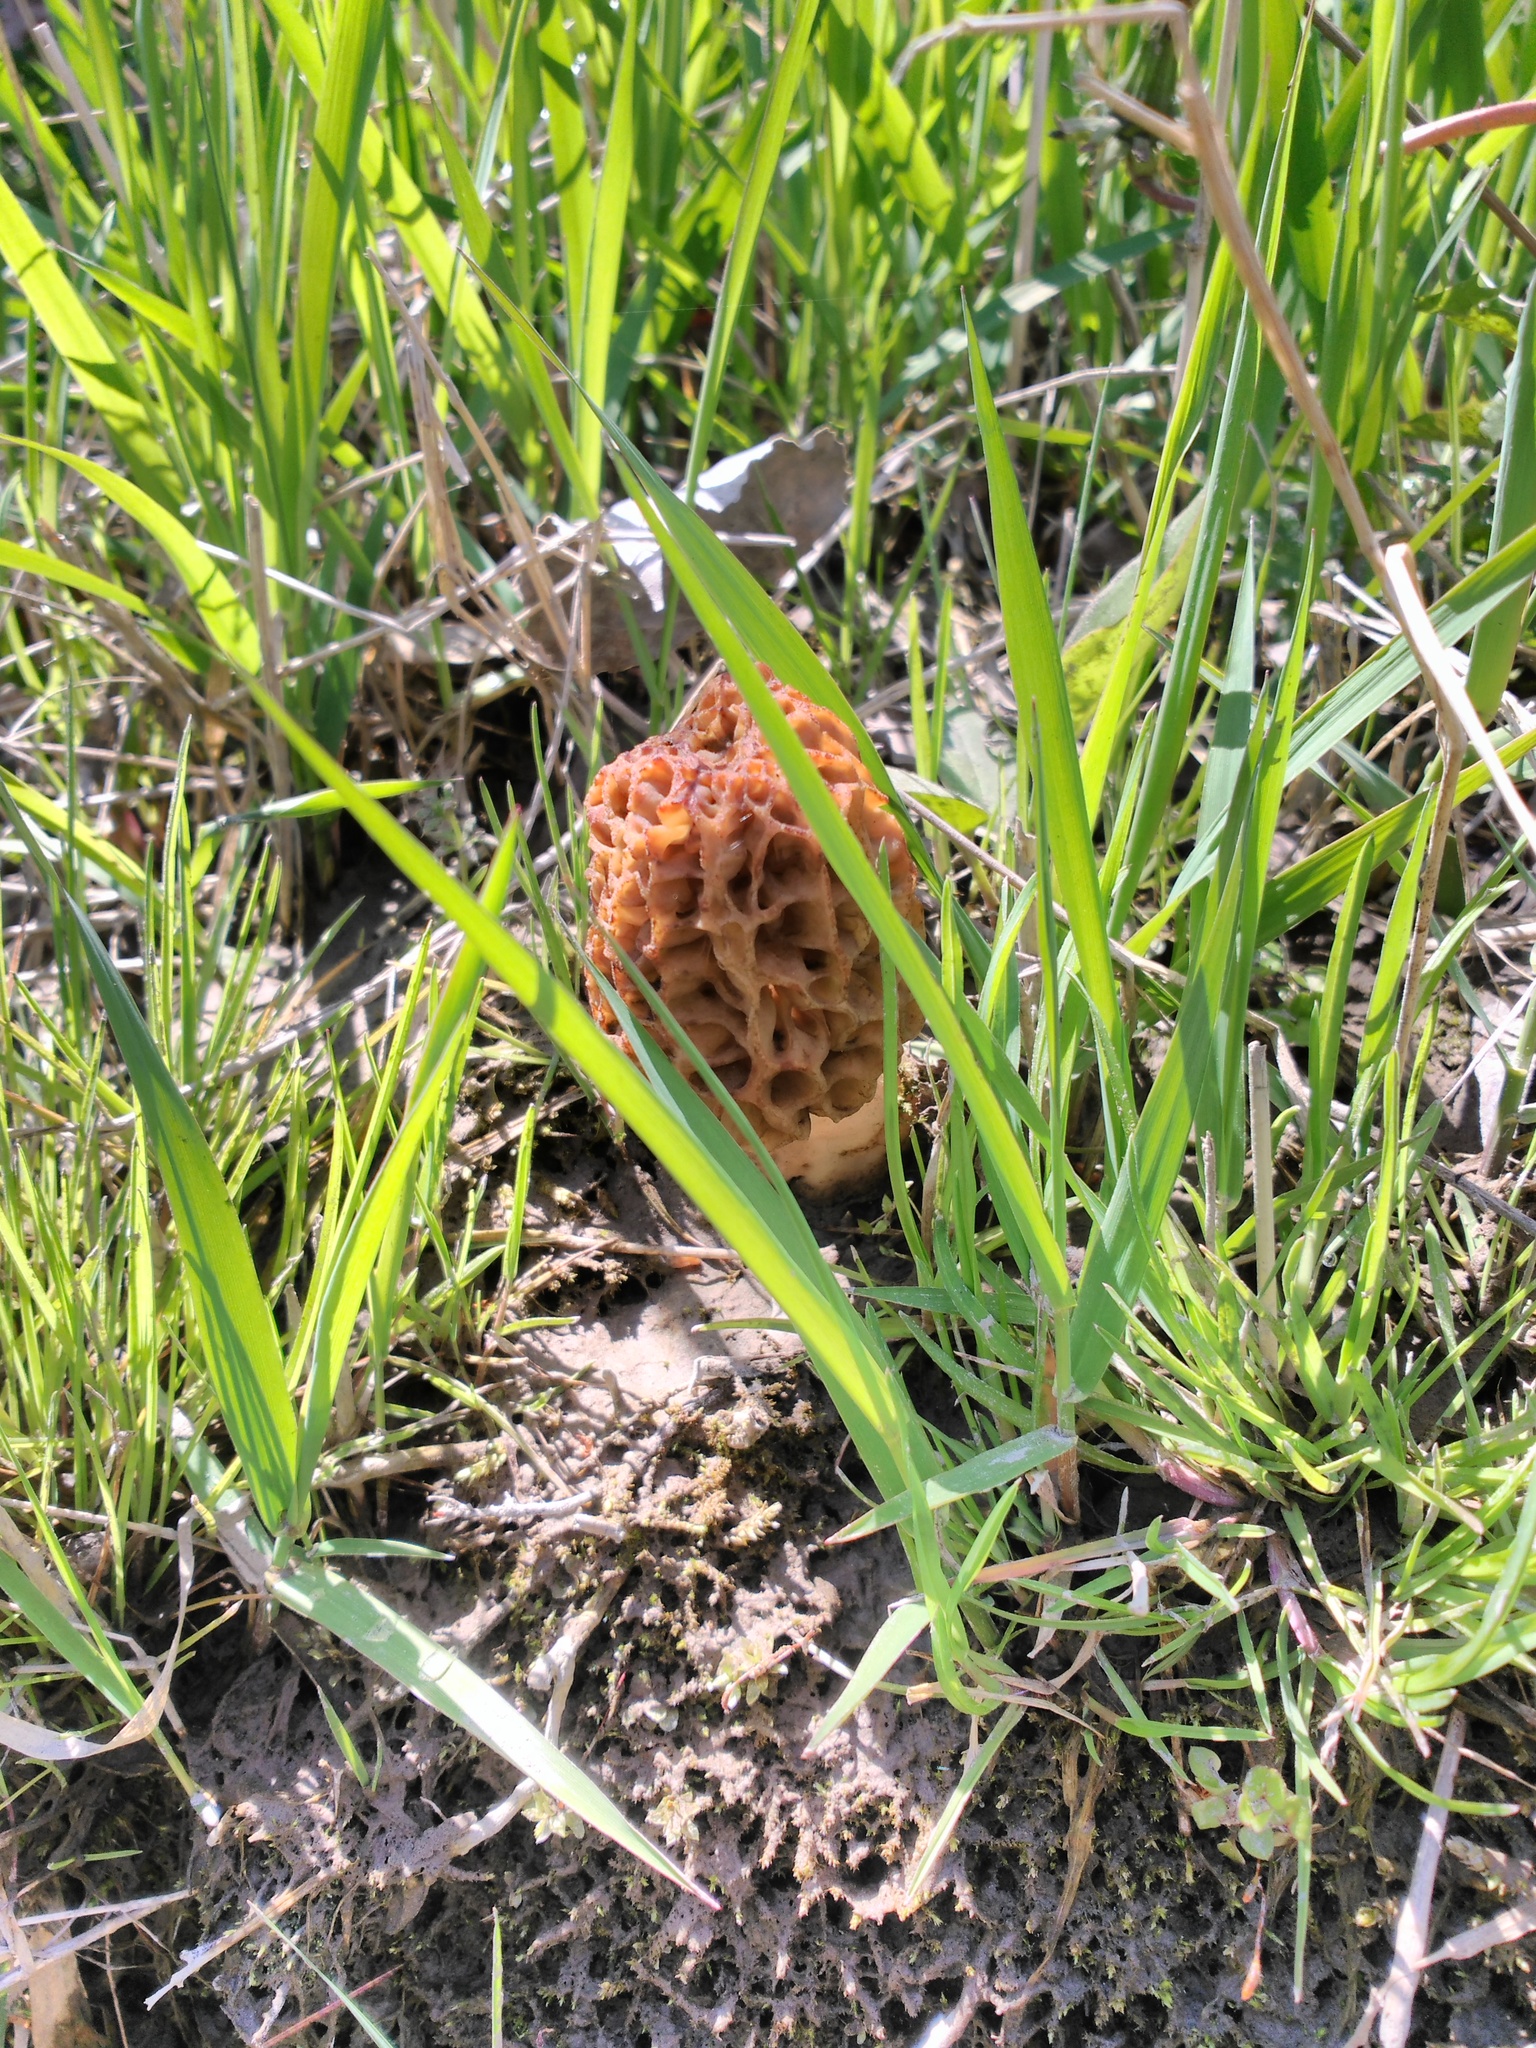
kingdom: Fungi
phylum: Ascomycota
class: Pezizomycetes
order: Pezizales
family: Morchellaceae
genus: Morchella
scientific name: Morchella
